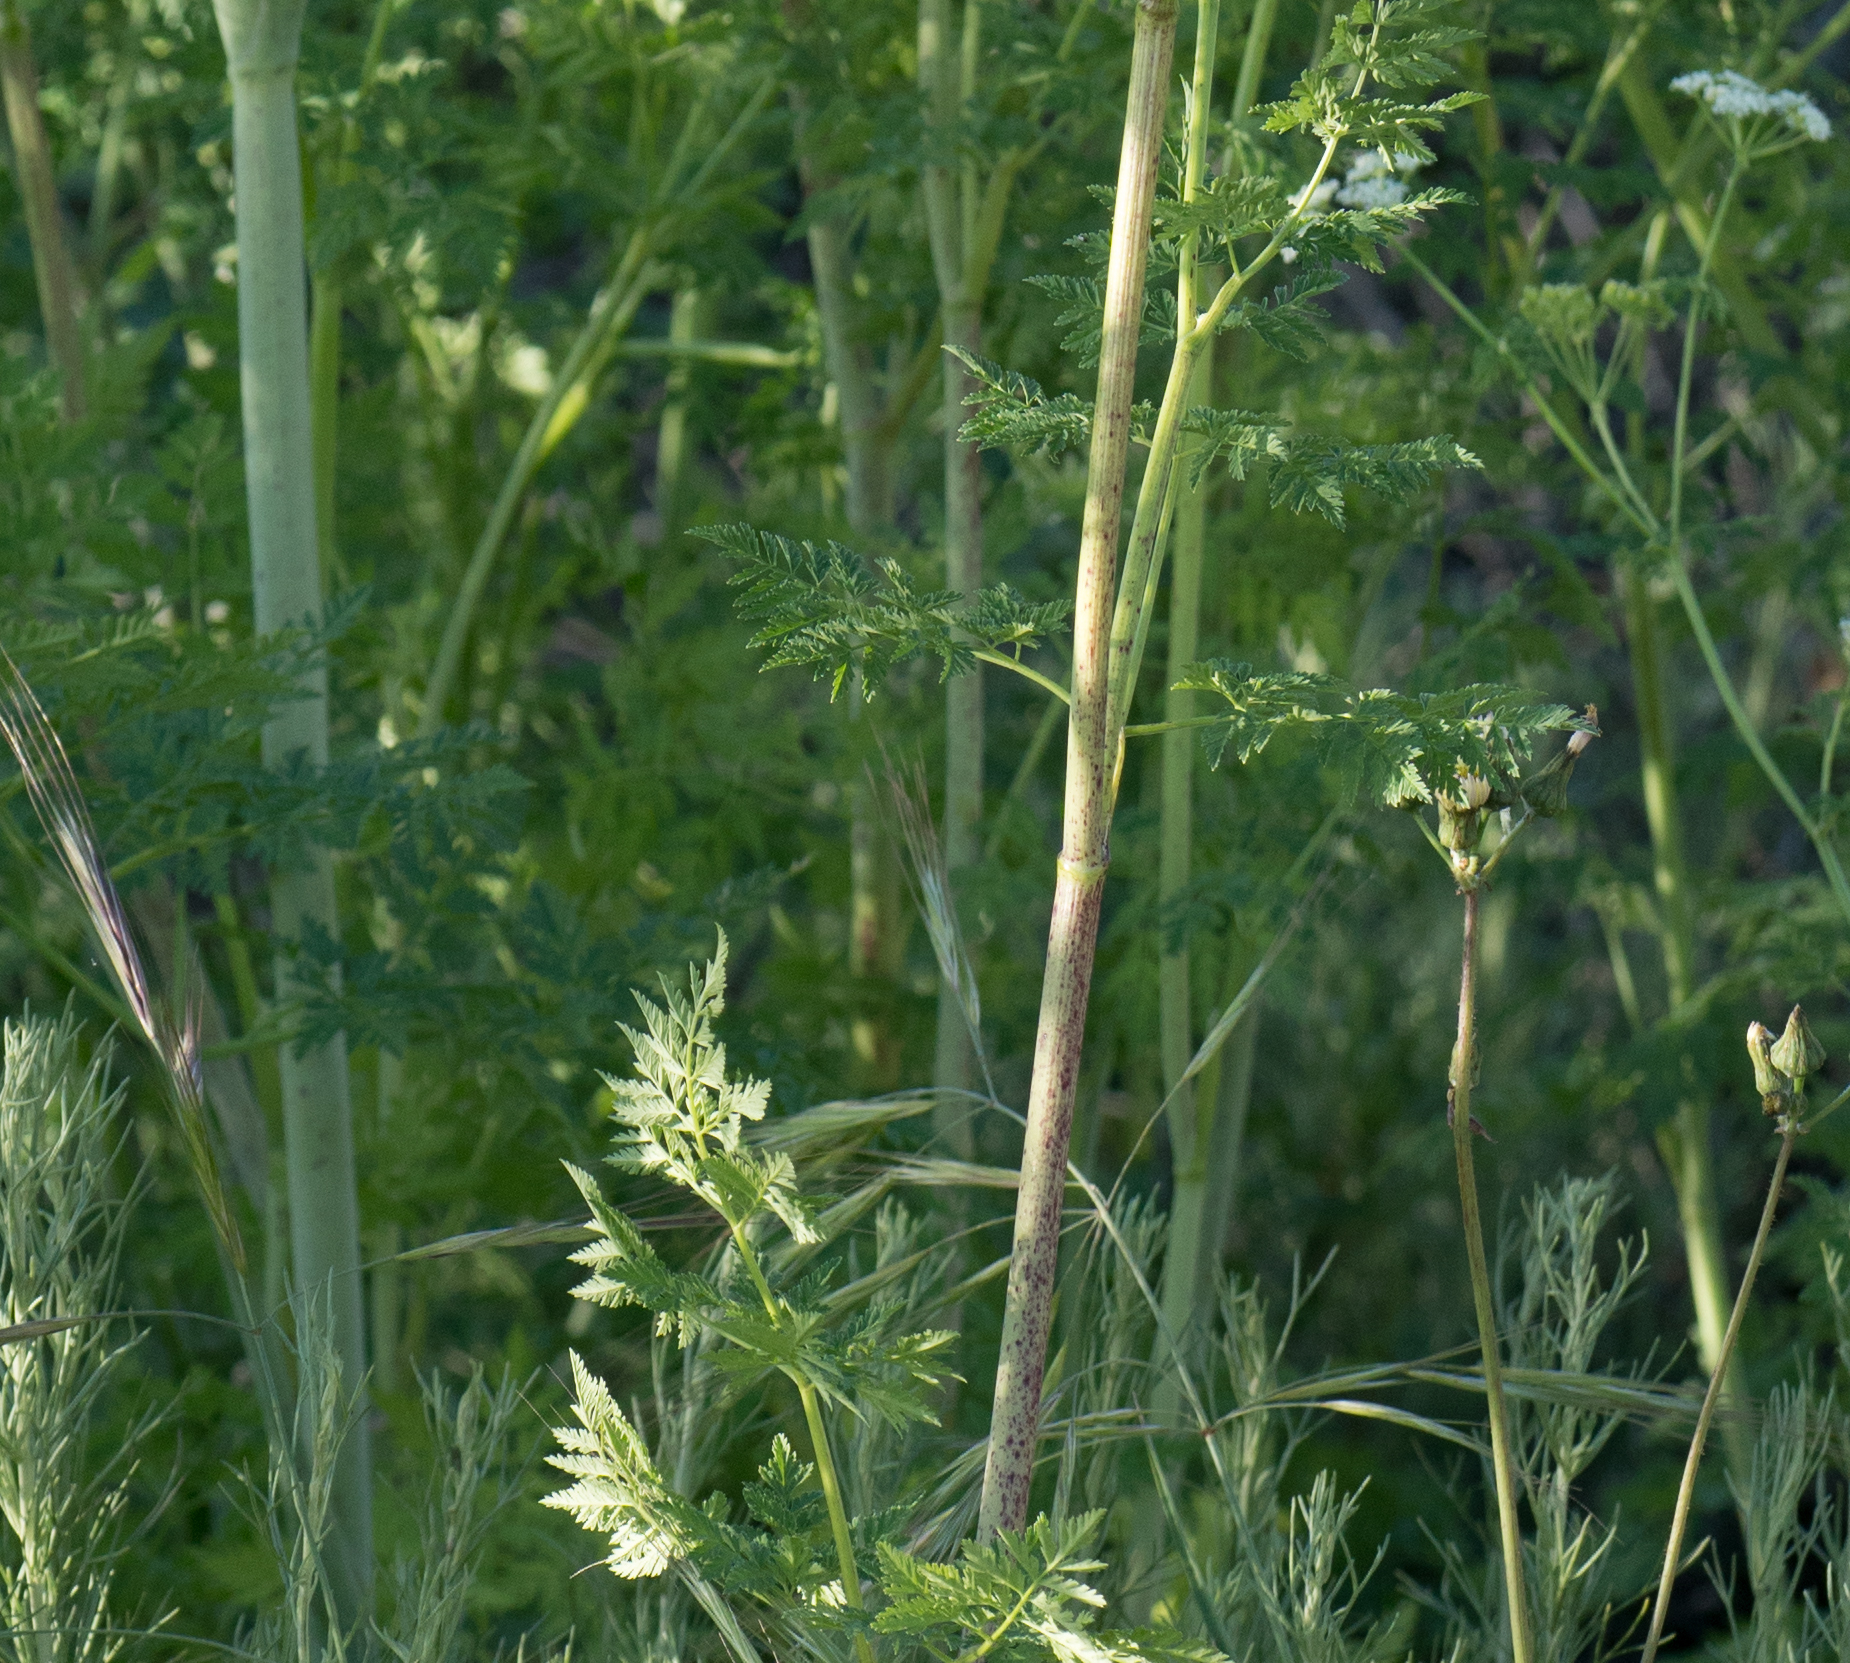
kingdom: Plantae
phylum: Tracheophyta
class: Magnoliopsida
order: Apiales
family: Apiaceae
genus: Conium
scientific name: Conium maculatum
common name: Hemlock
